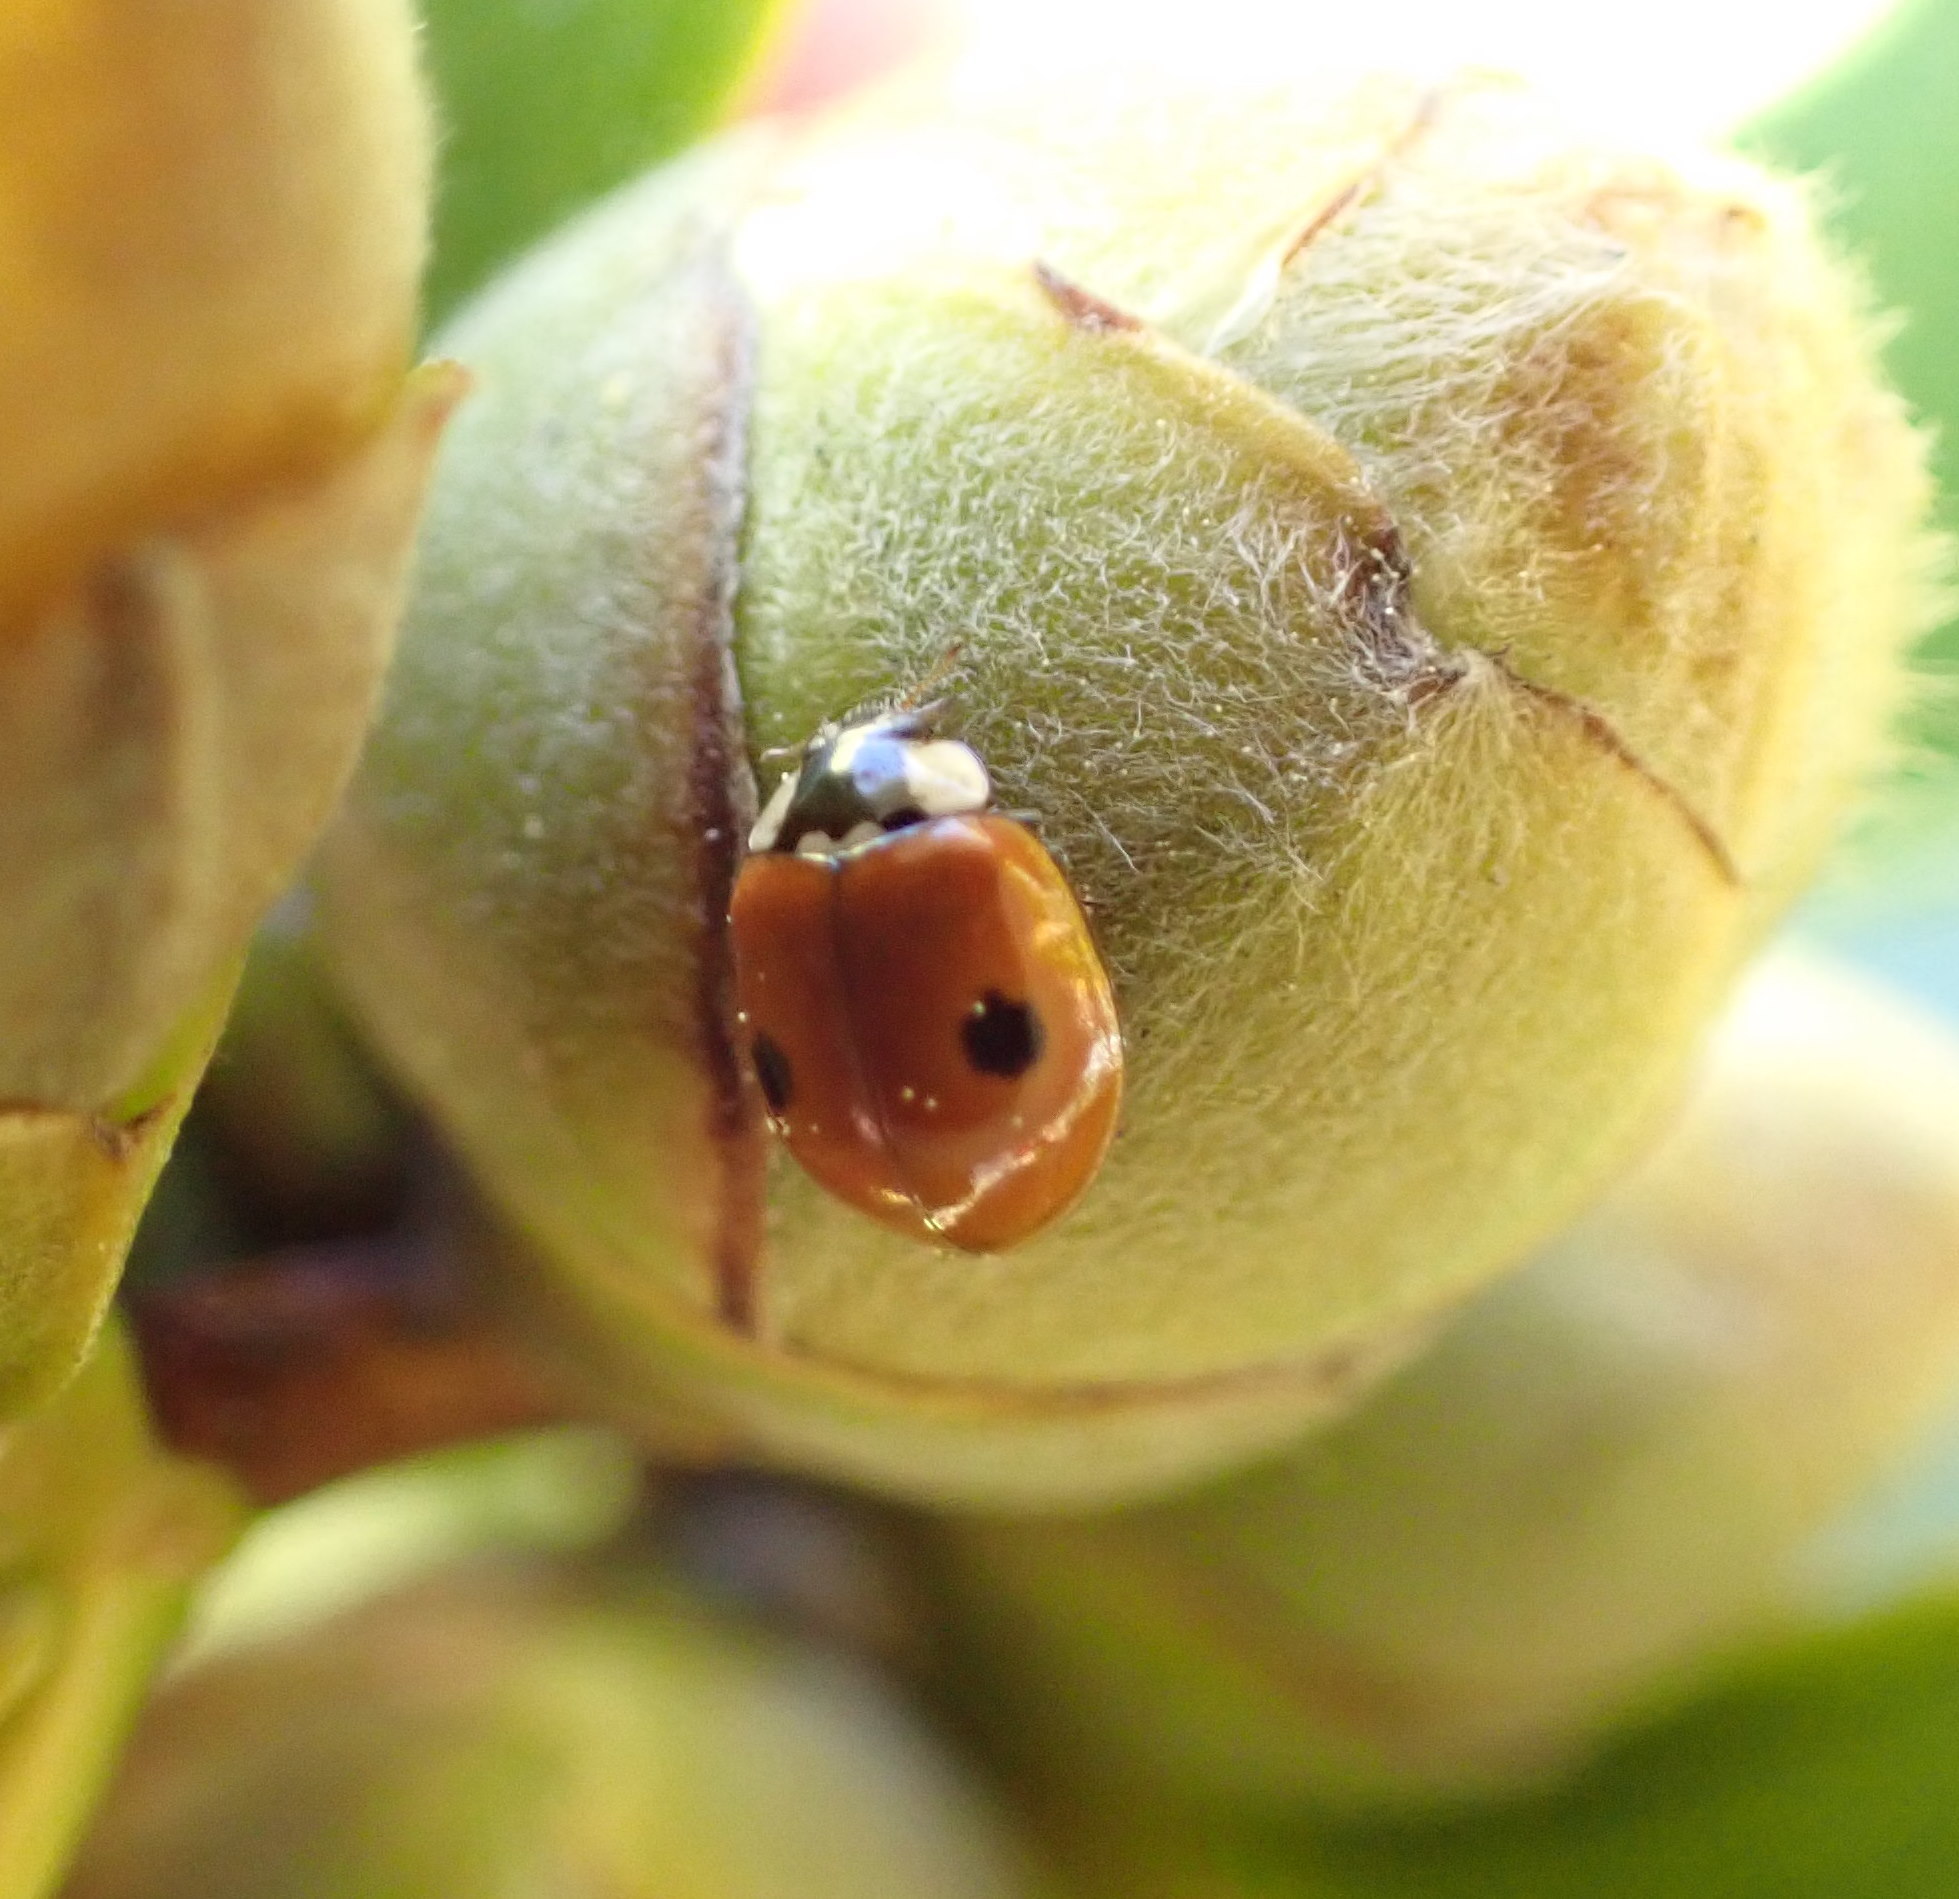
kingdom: Animalia
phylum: Arthropoda
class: Insecta
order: Coleoptera
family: Coccinellidae
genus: Adalia
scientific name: Adalia bipunctata
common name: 2-spot ladybird
